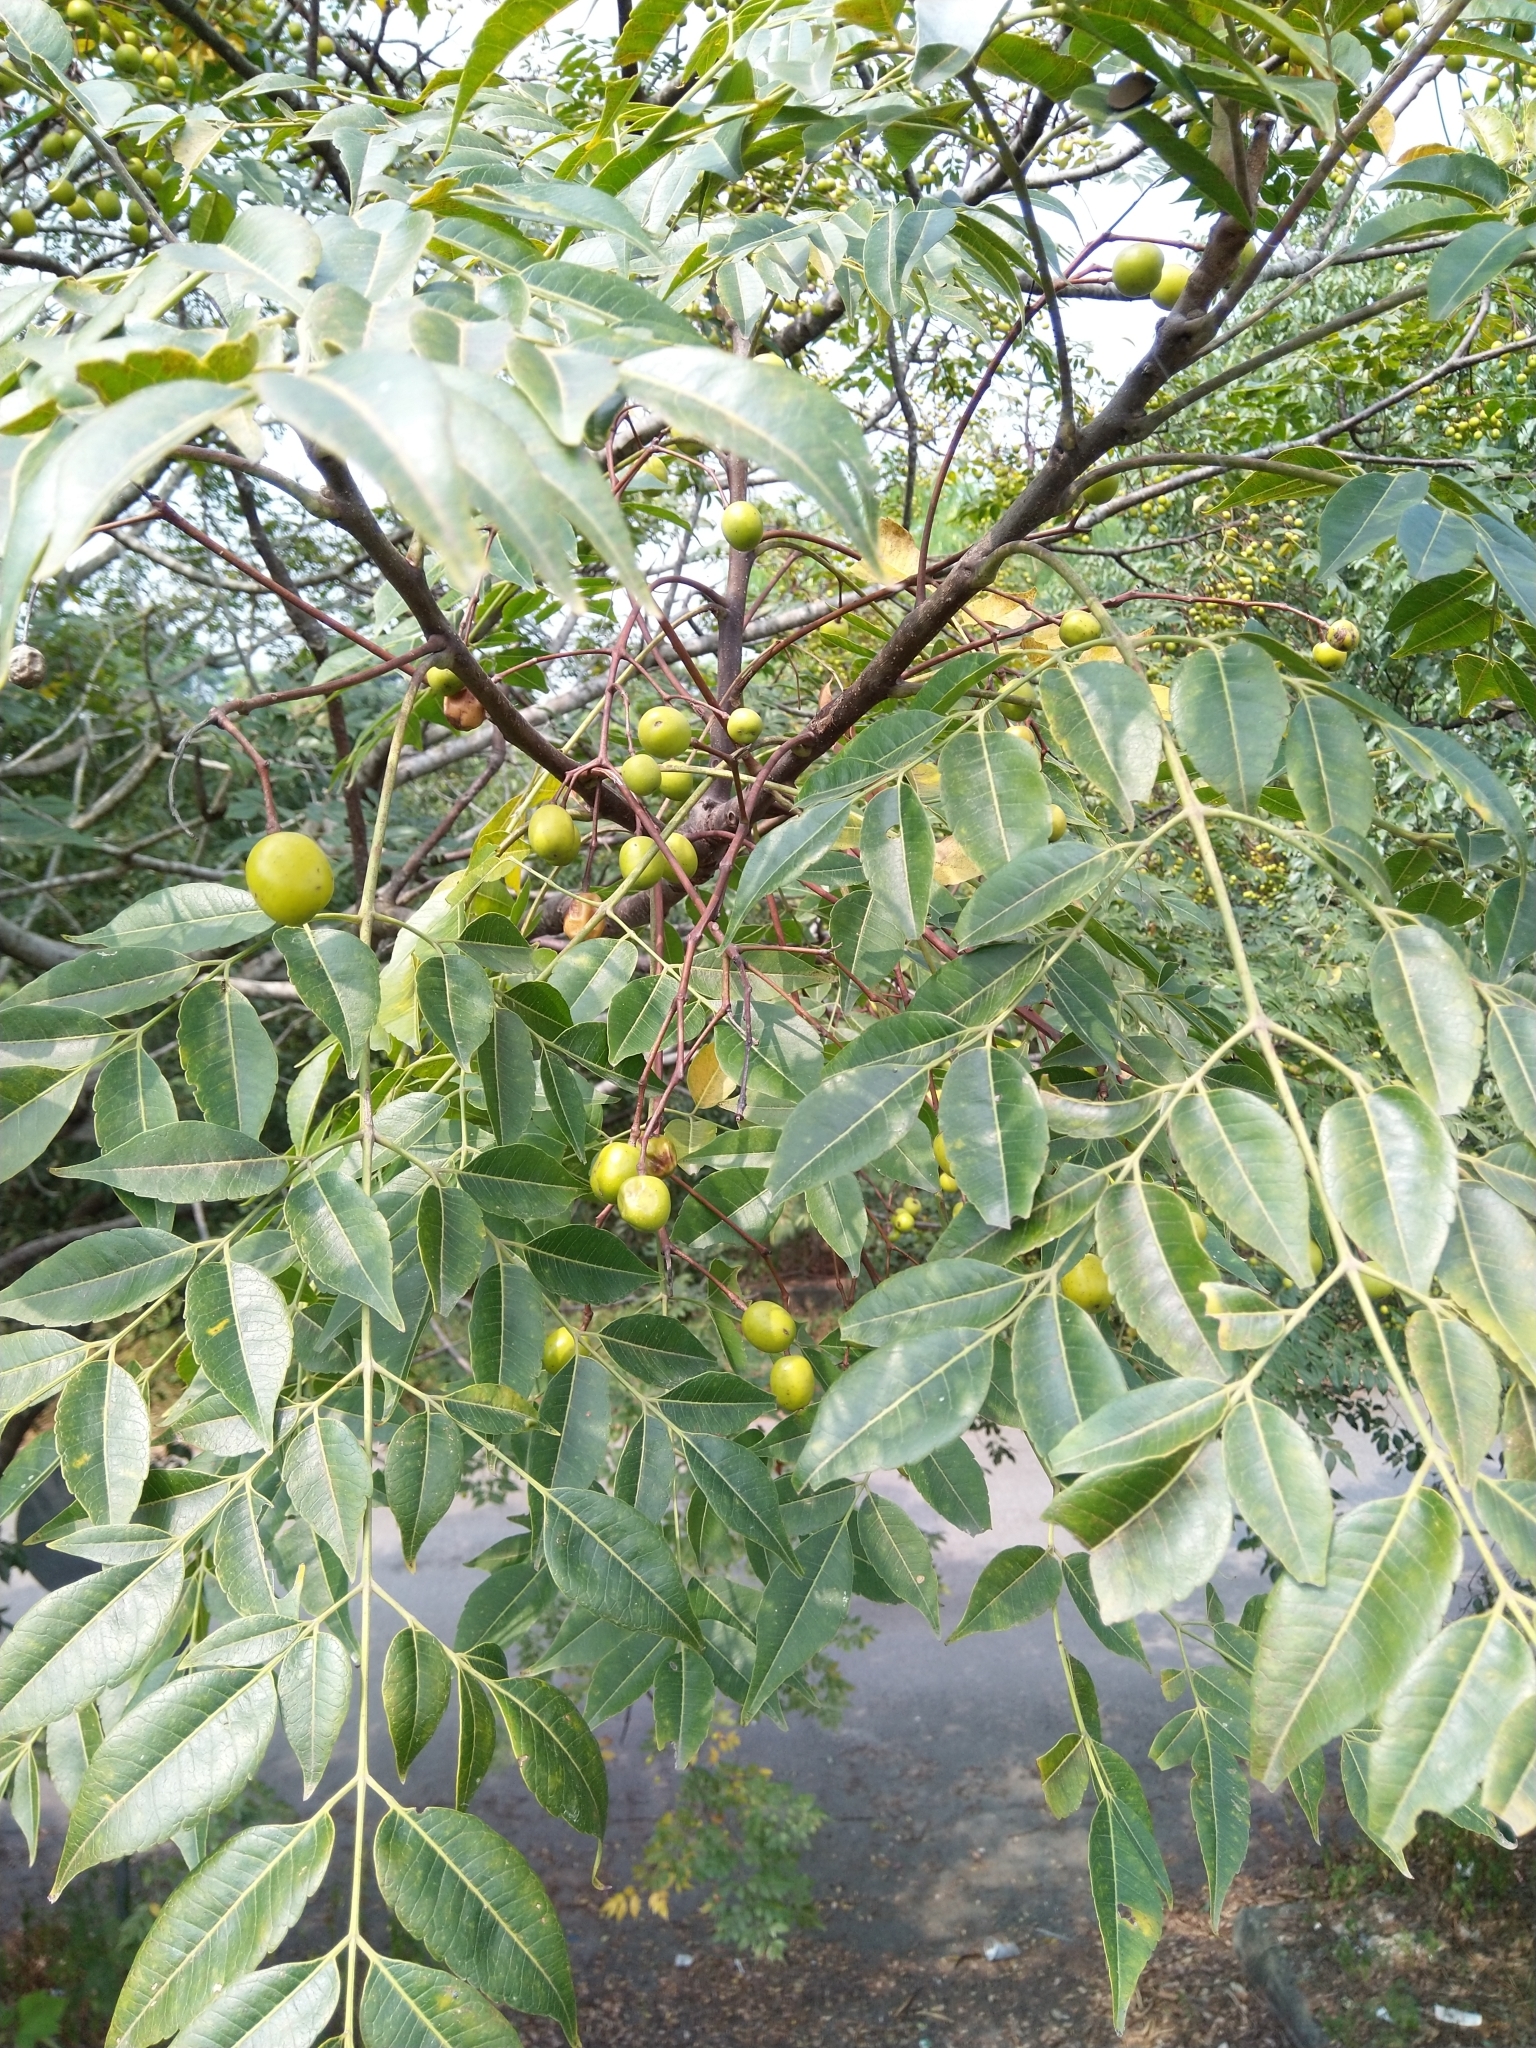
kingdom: Plantae
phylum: Tracheophyta
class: Magnoliopsida
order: Sapindales
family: Meliaceae
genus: Melia
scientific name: Melia azedarach
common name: Chinaberrytree
